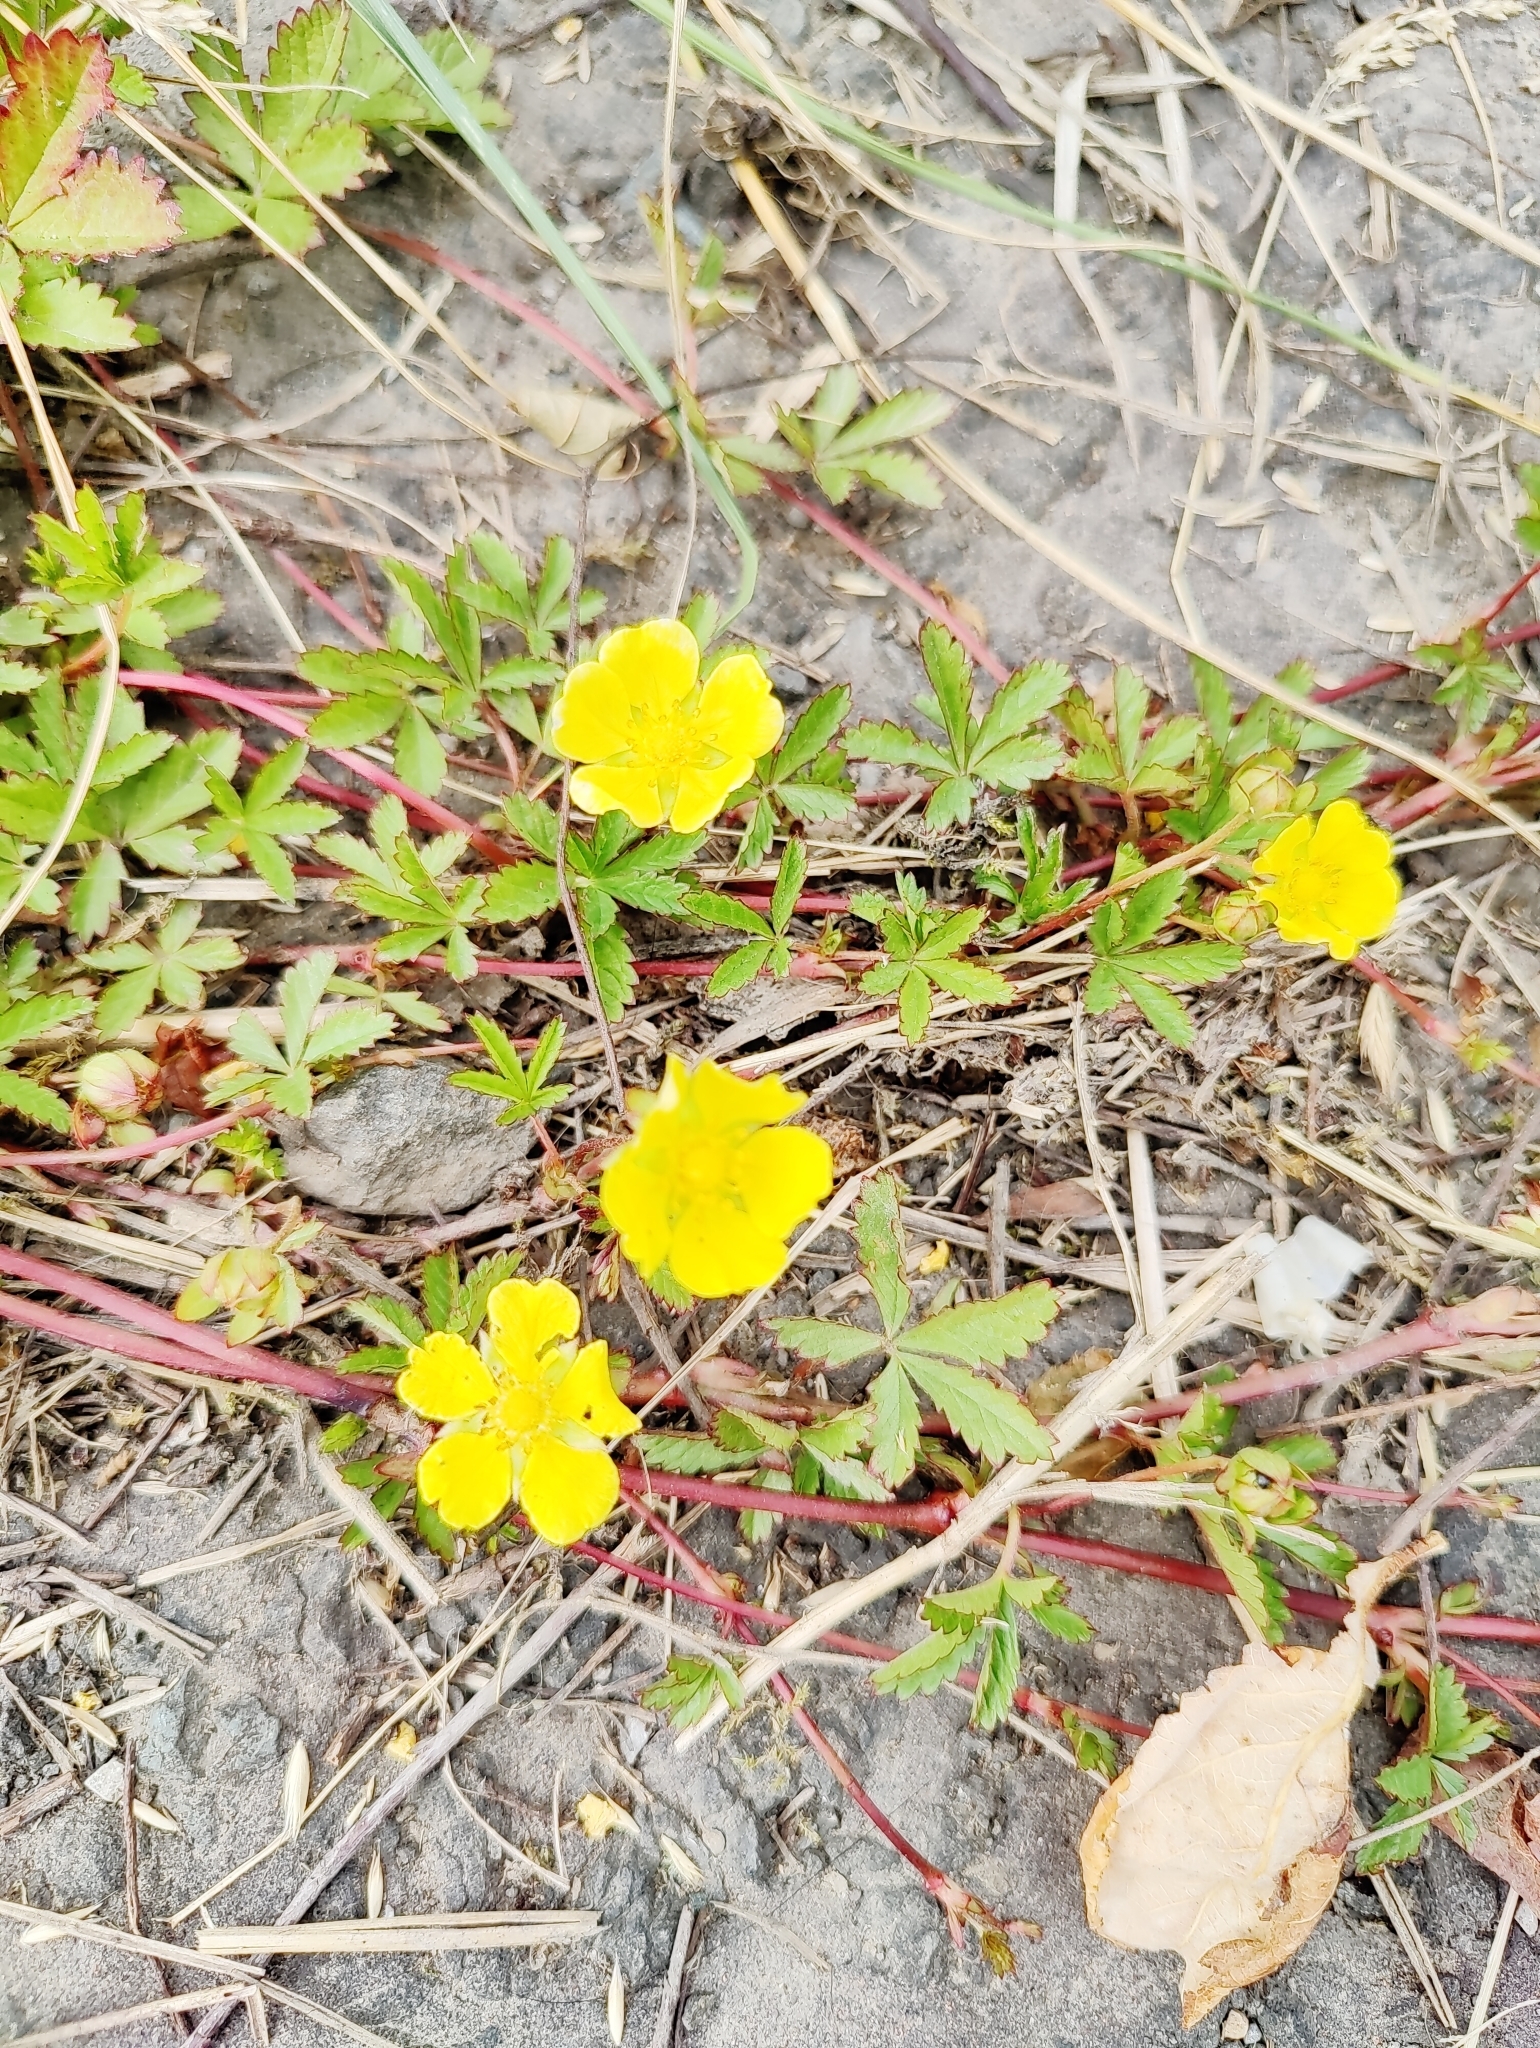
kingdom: Plantae
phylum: Tracheophyta
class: Magnoliopsida
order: Rosales
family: Rosaceae
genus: Potentilla
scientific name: Potentilla reptans
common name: Creeping cinquefoil
